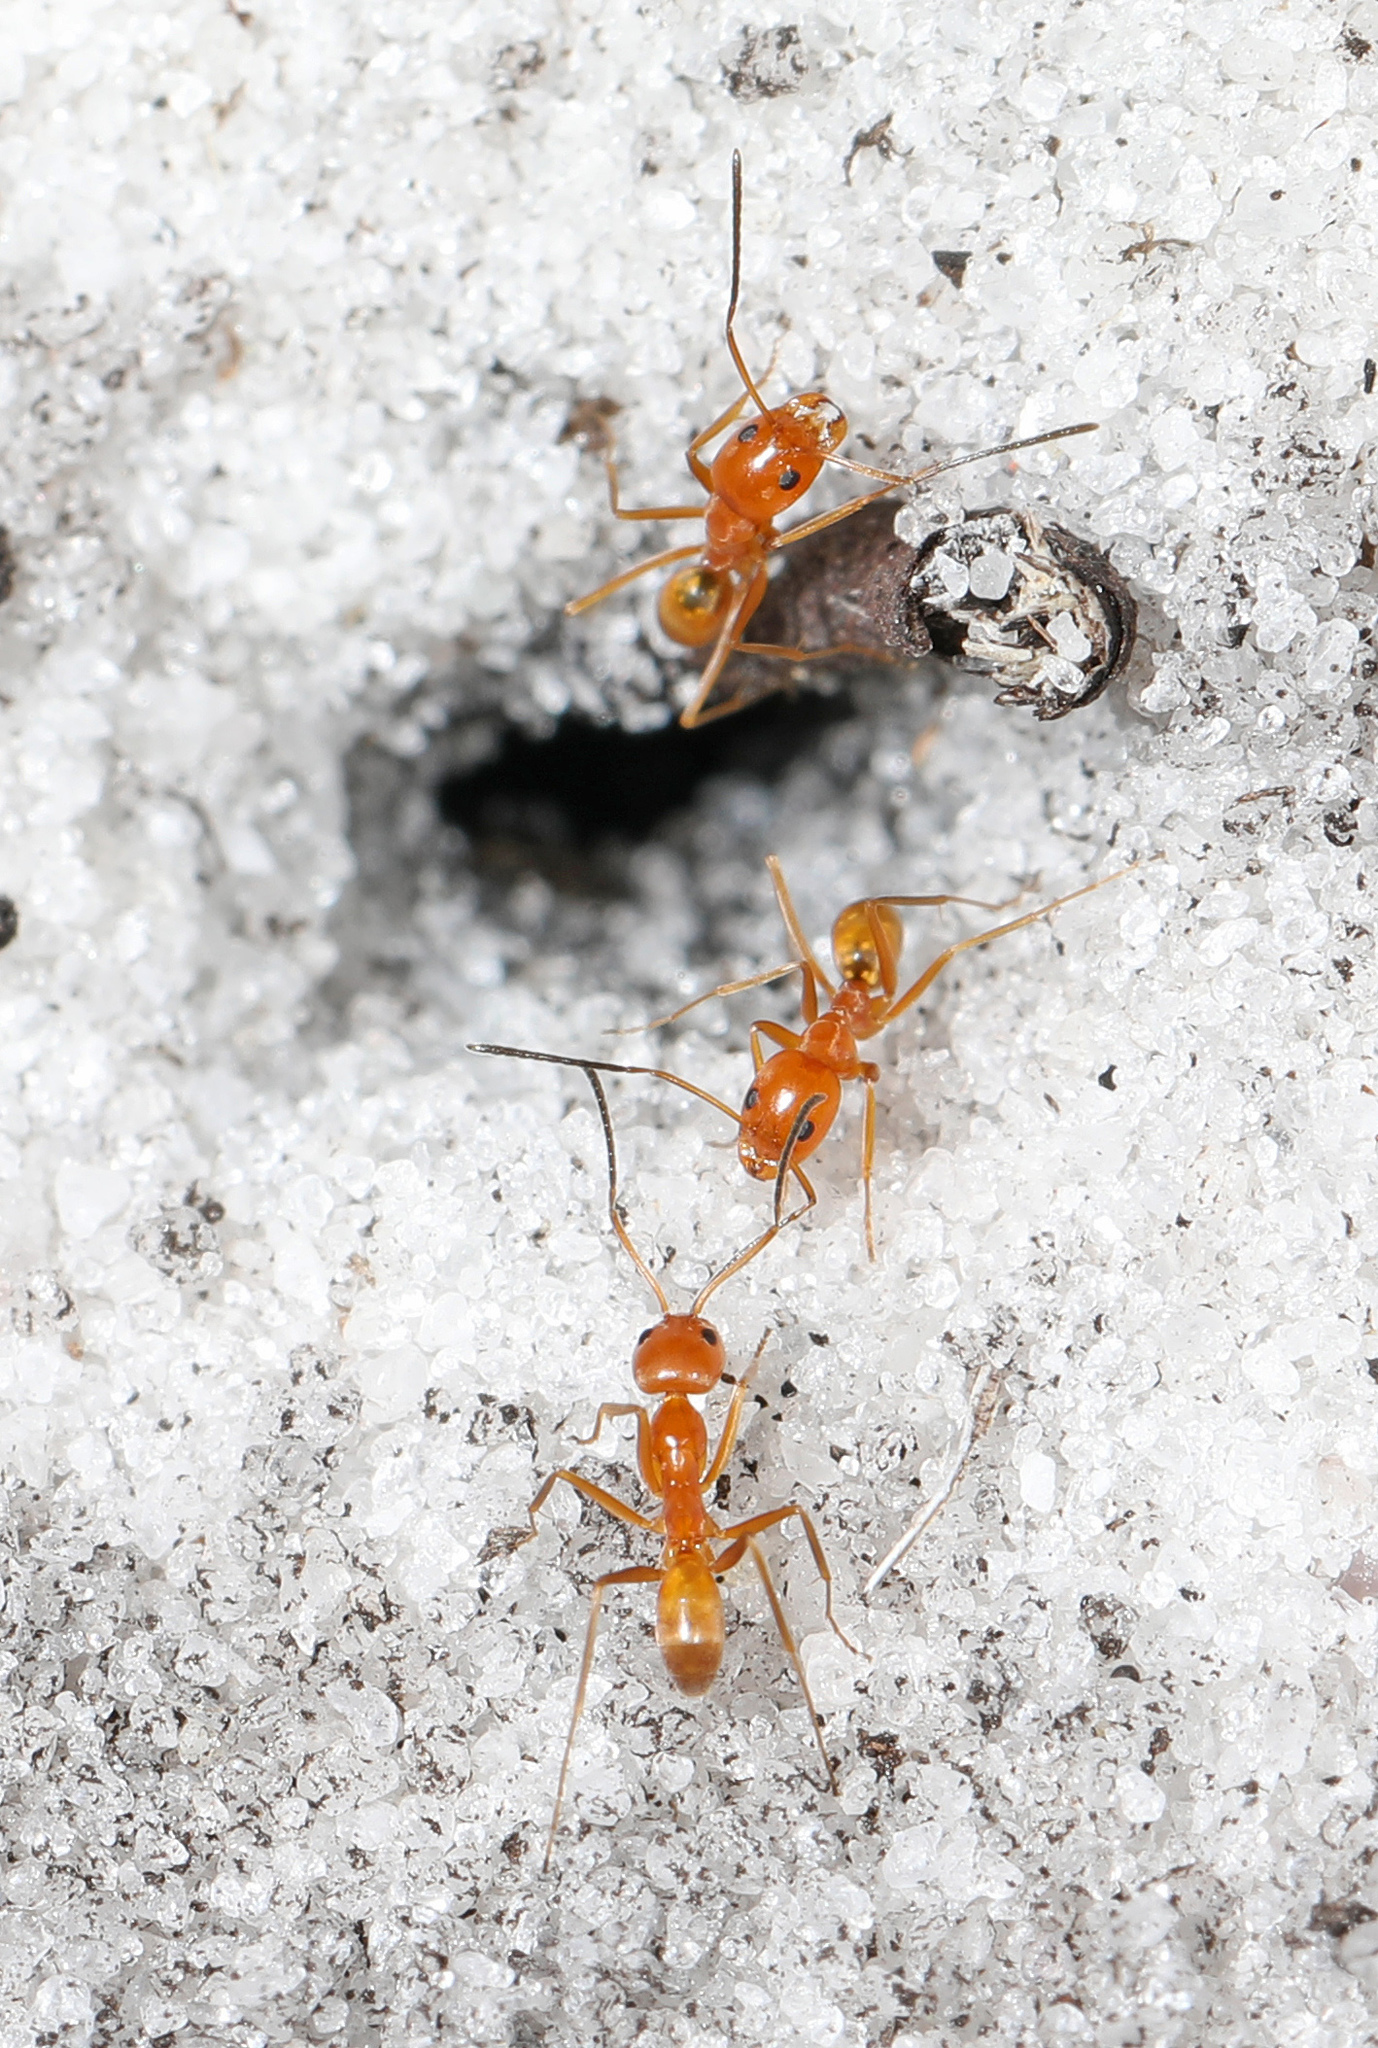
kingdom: Animalia
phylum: Arthropoda
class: Insecta
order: Hymenoptera
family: Formicidae
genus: Dorymyrmex
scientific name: Dorymyrmex bureni
